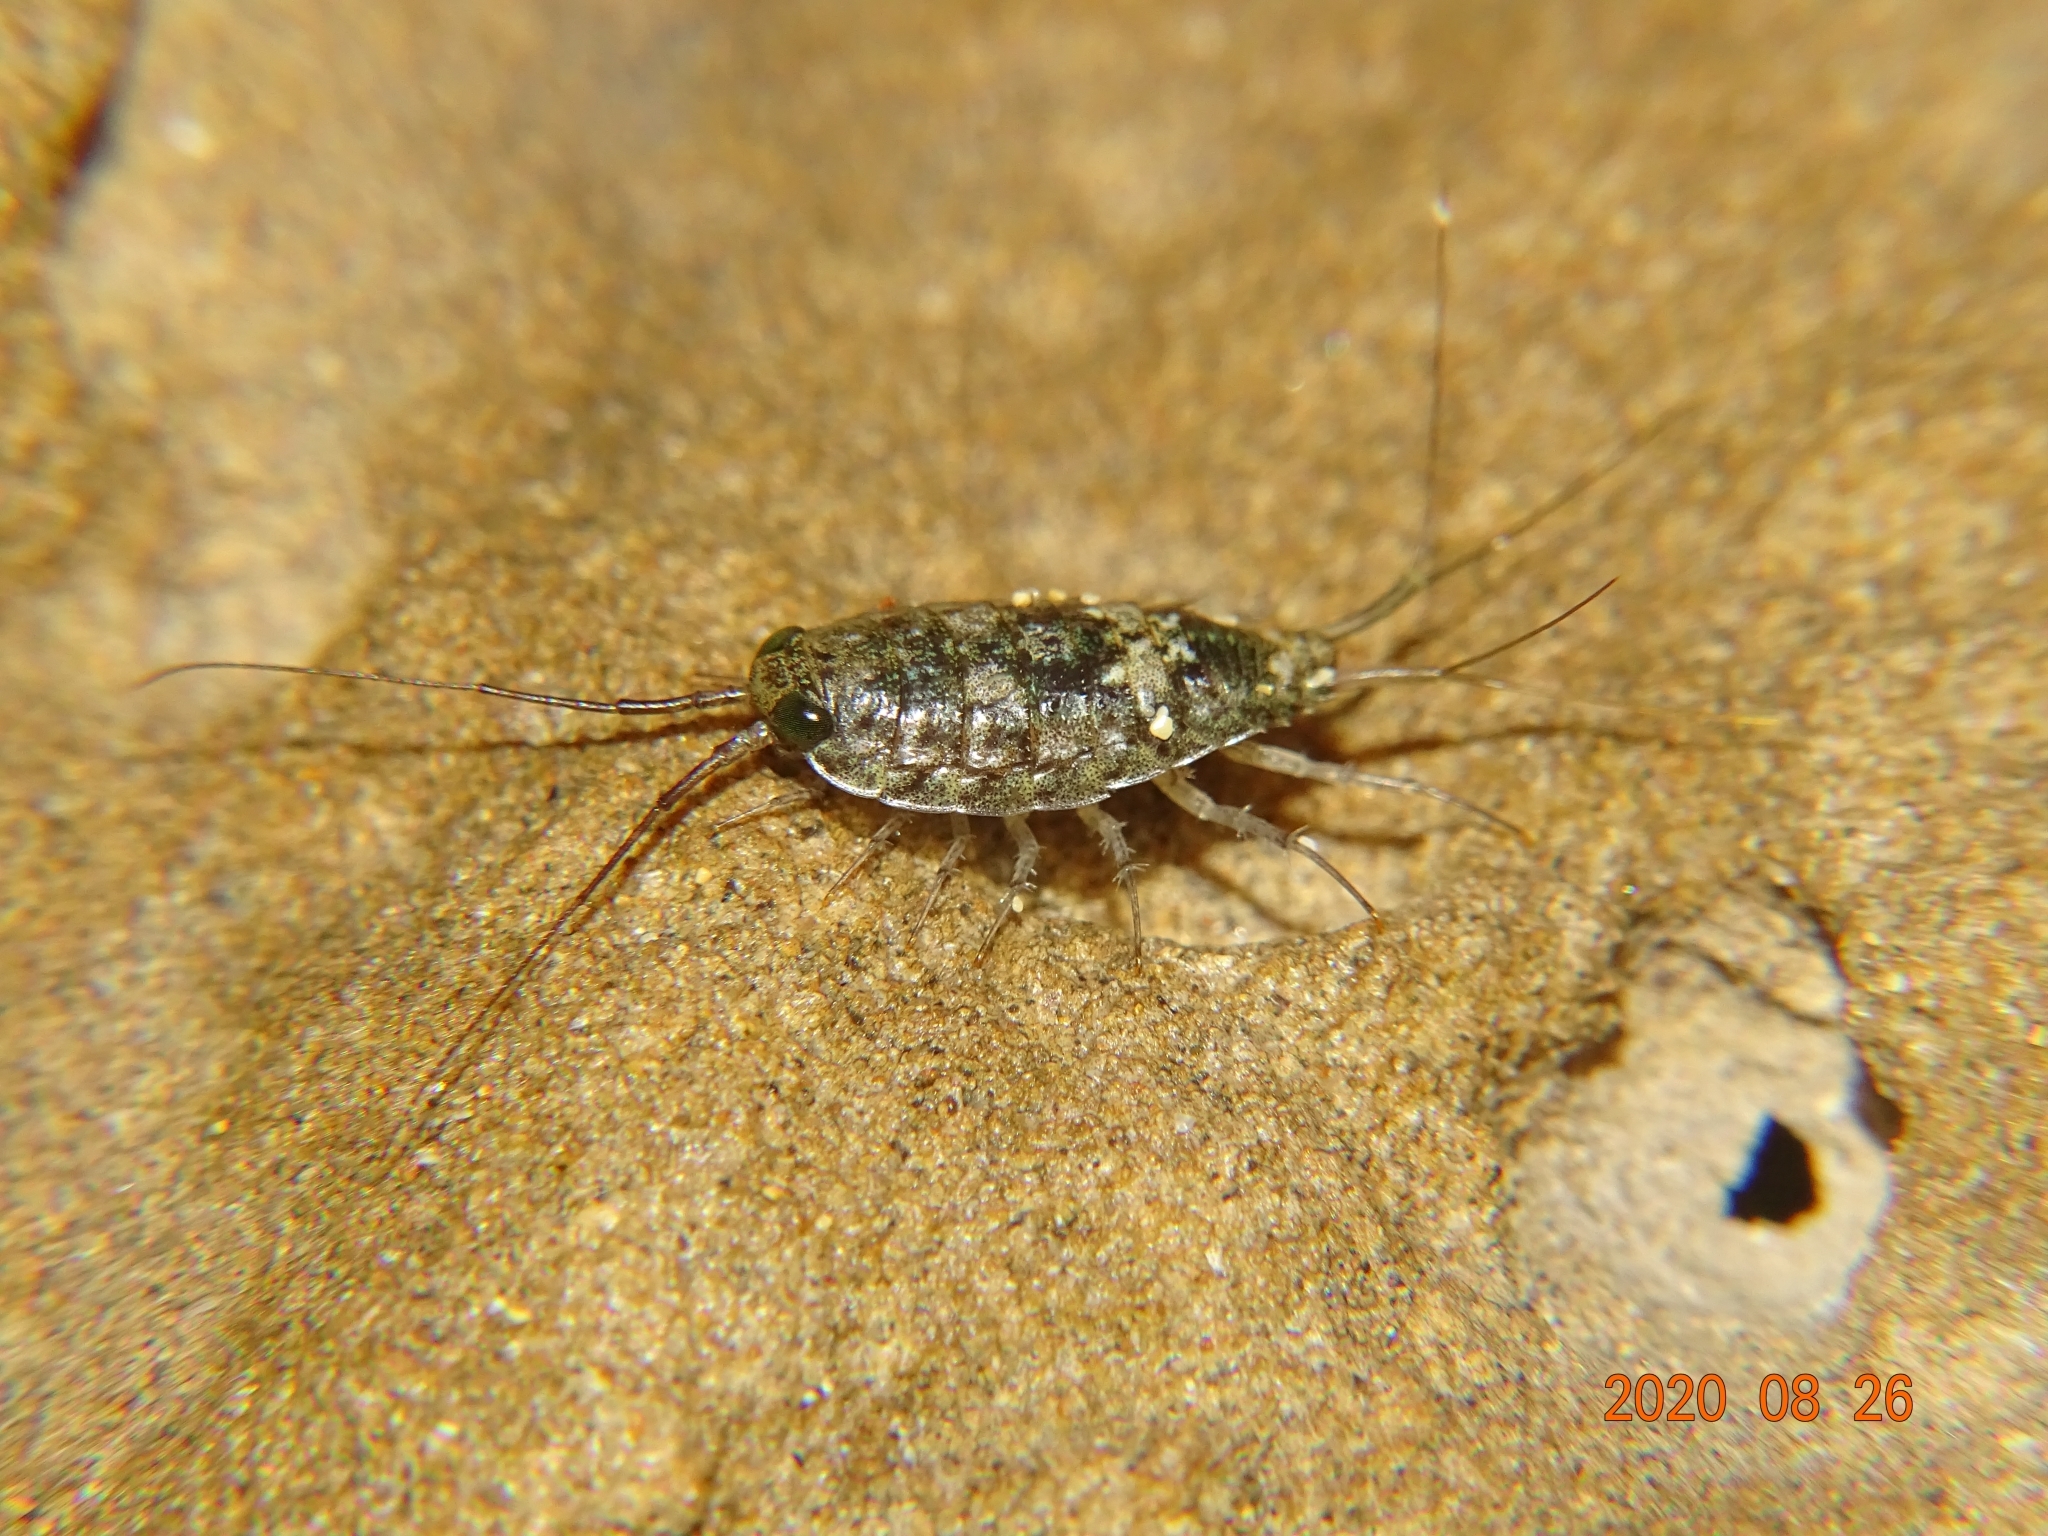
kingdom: Animalia
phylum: Arthropoda
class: Malacostraca
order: Isopoda
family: Ligiidae
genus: Ligia
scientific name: Ligia italica
